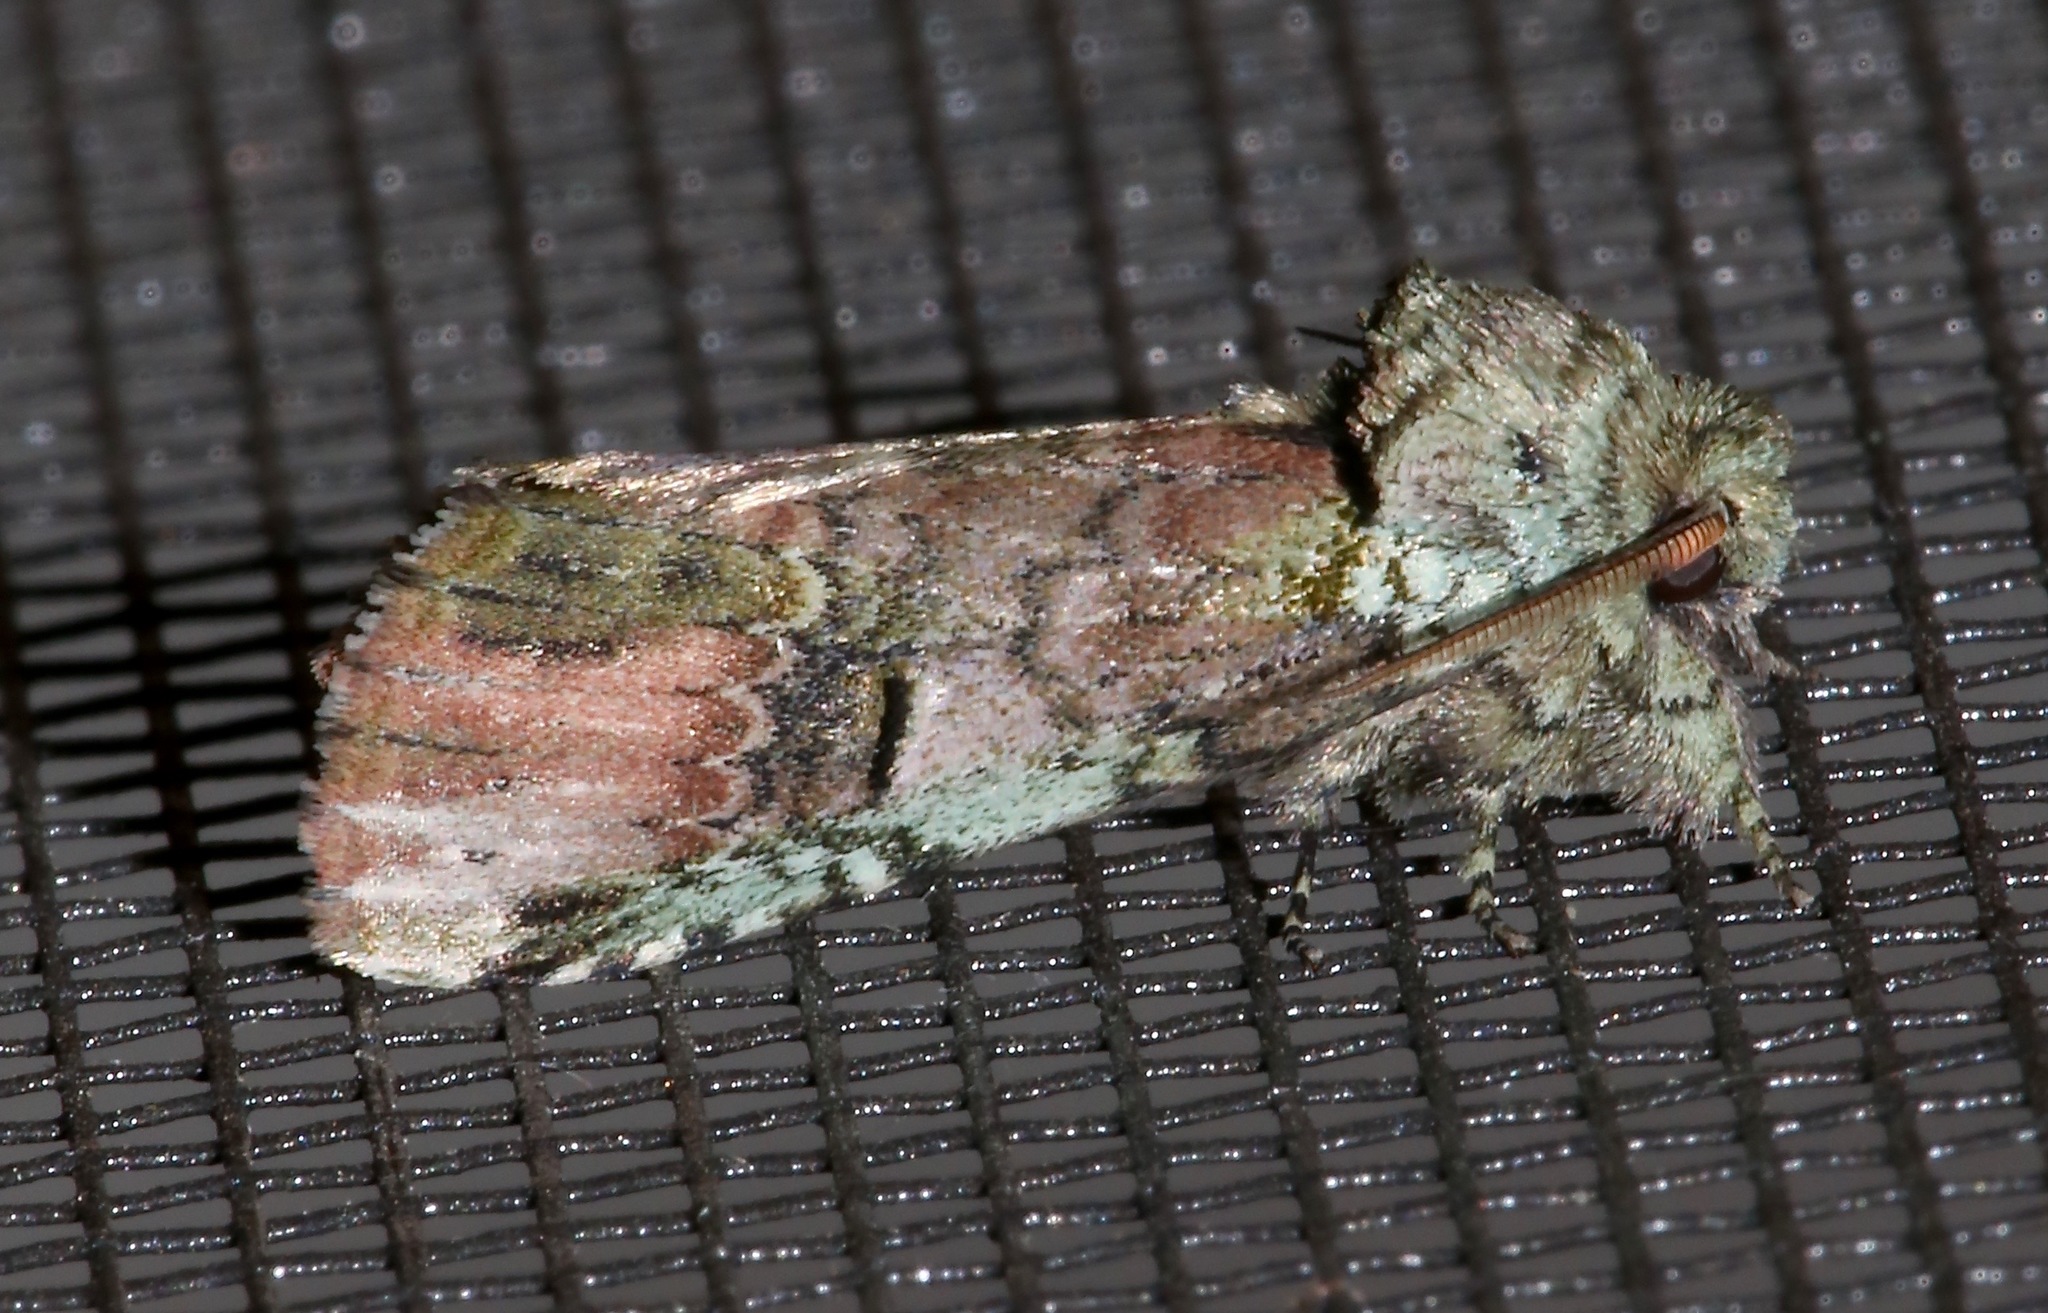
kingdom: Animalia
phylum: Arthropoda
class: Insecta
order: Lepidoptera
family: Notodontidae
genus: Schizura
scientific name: Schizura
